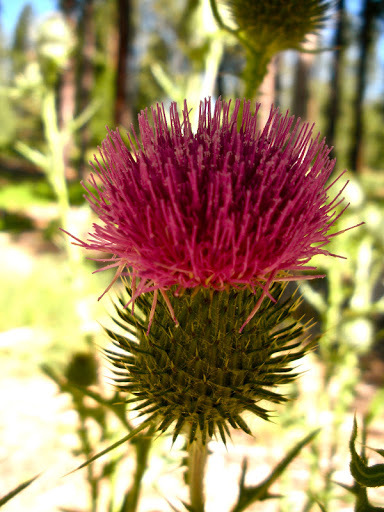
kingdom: Plantae
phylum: Tracheophyta
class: Magnoliopsida
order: Asterales
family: Asteraceae
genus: Cirsium
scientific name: Cirsium vulgare
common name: Bull thistle
